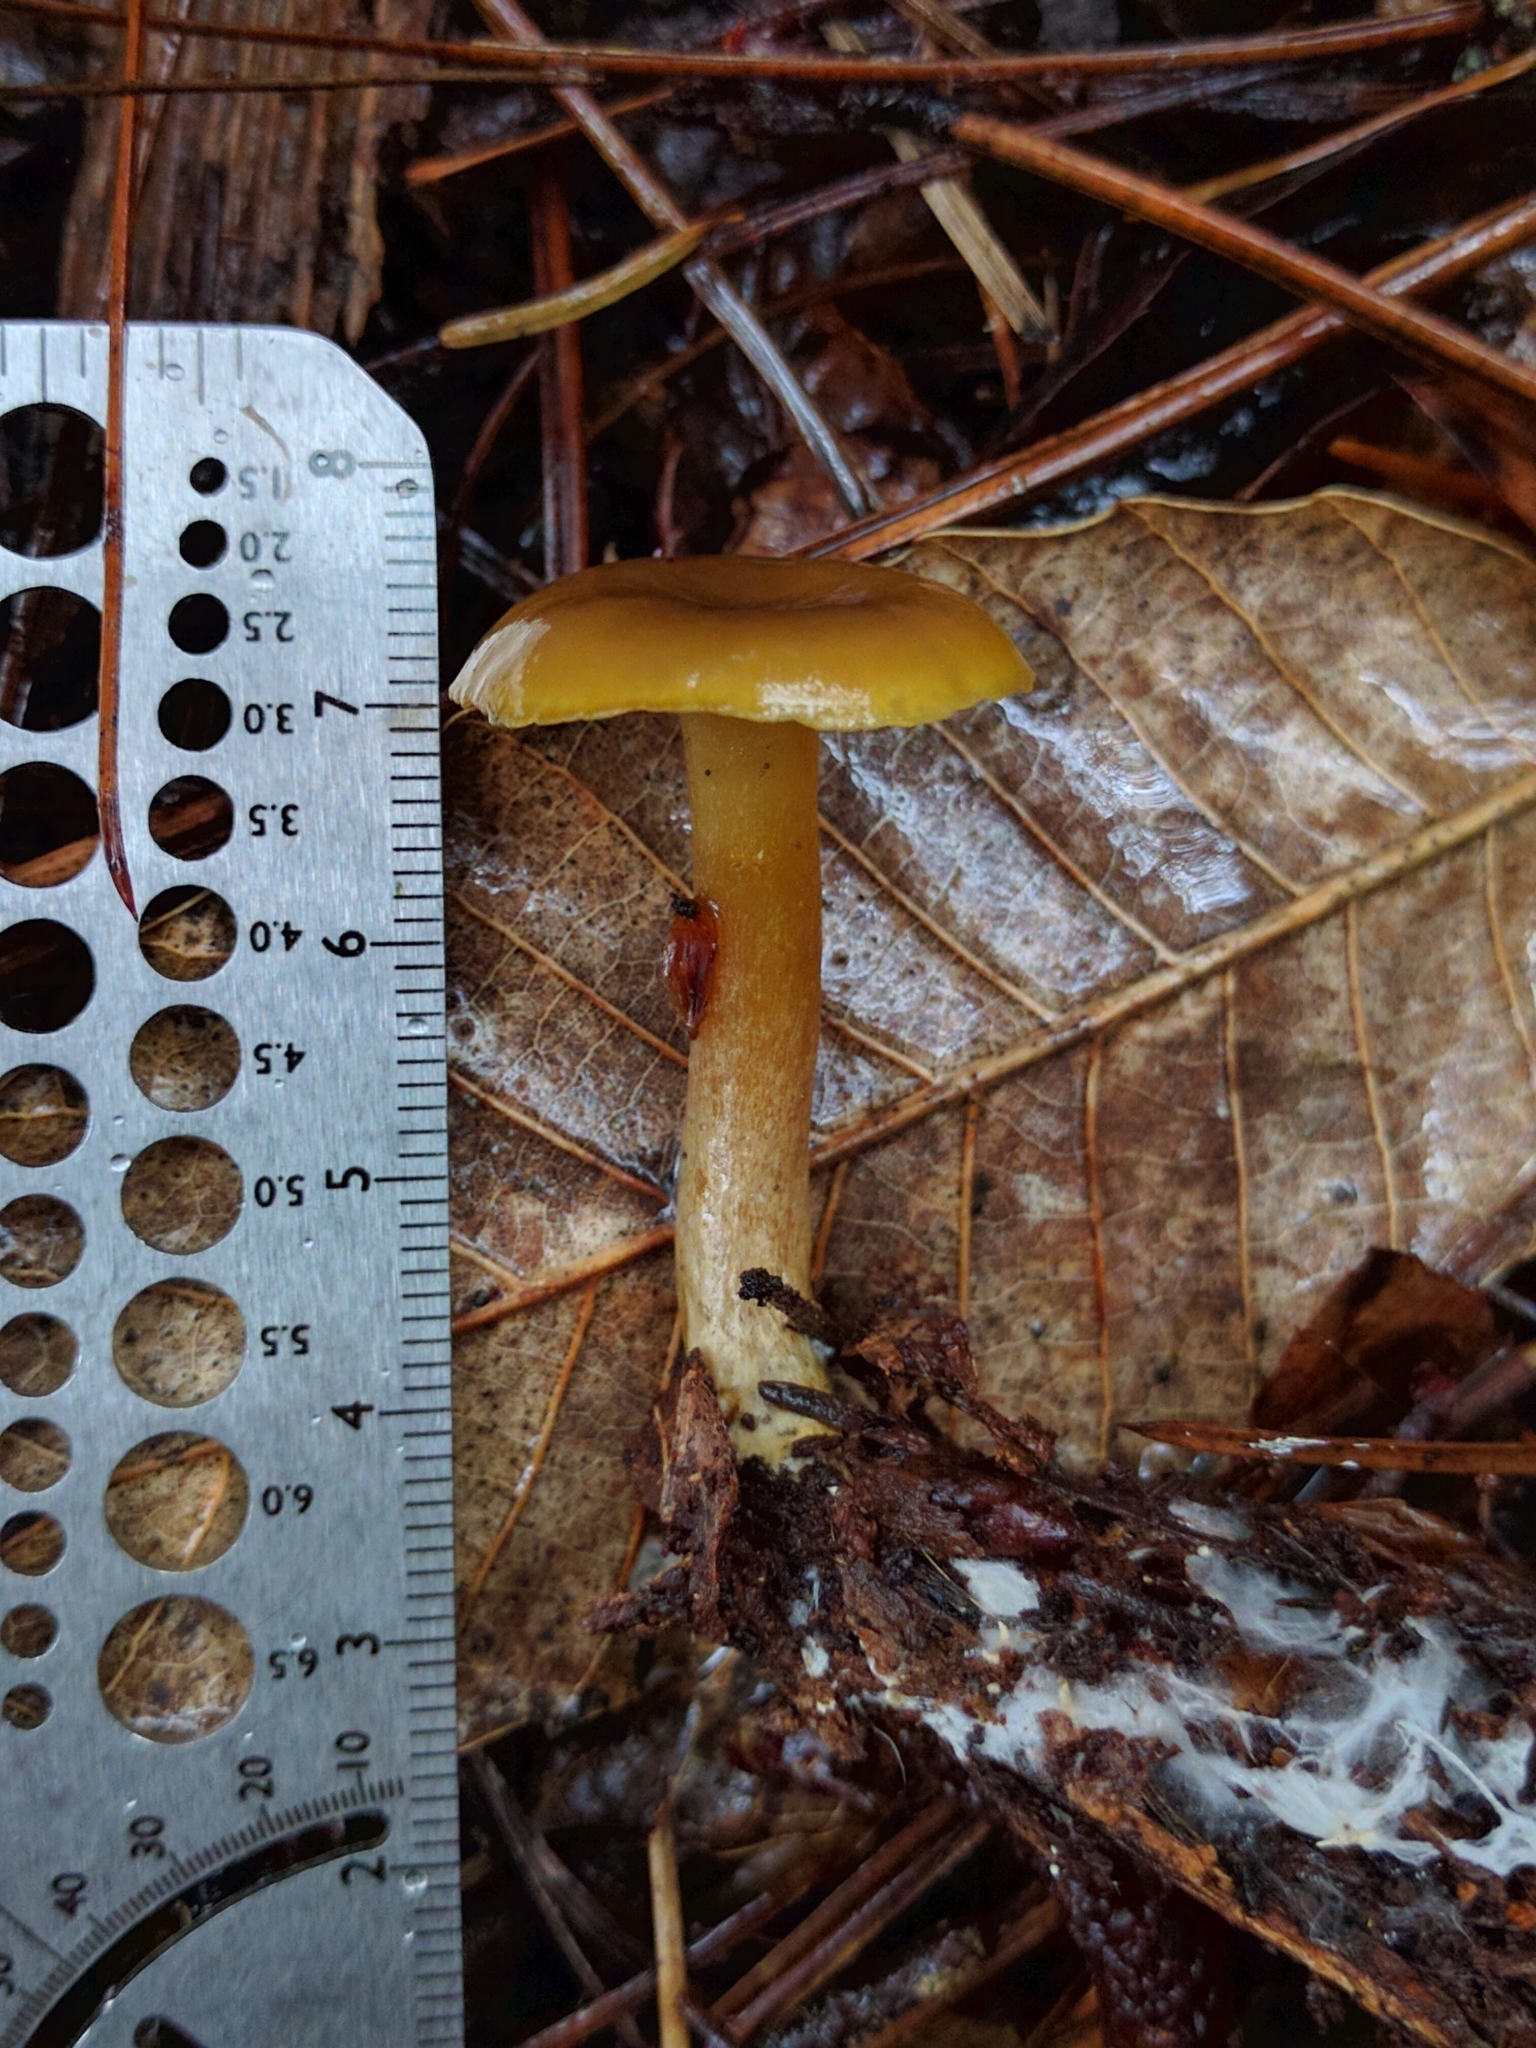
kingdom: Fungi
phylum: Basidiomycota
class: Agaricomycetes
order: Agaricales
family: Callistosporiaceae
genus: Callistosporium
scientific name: Callistosporium luteo-olivaceum
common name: Olive lute
